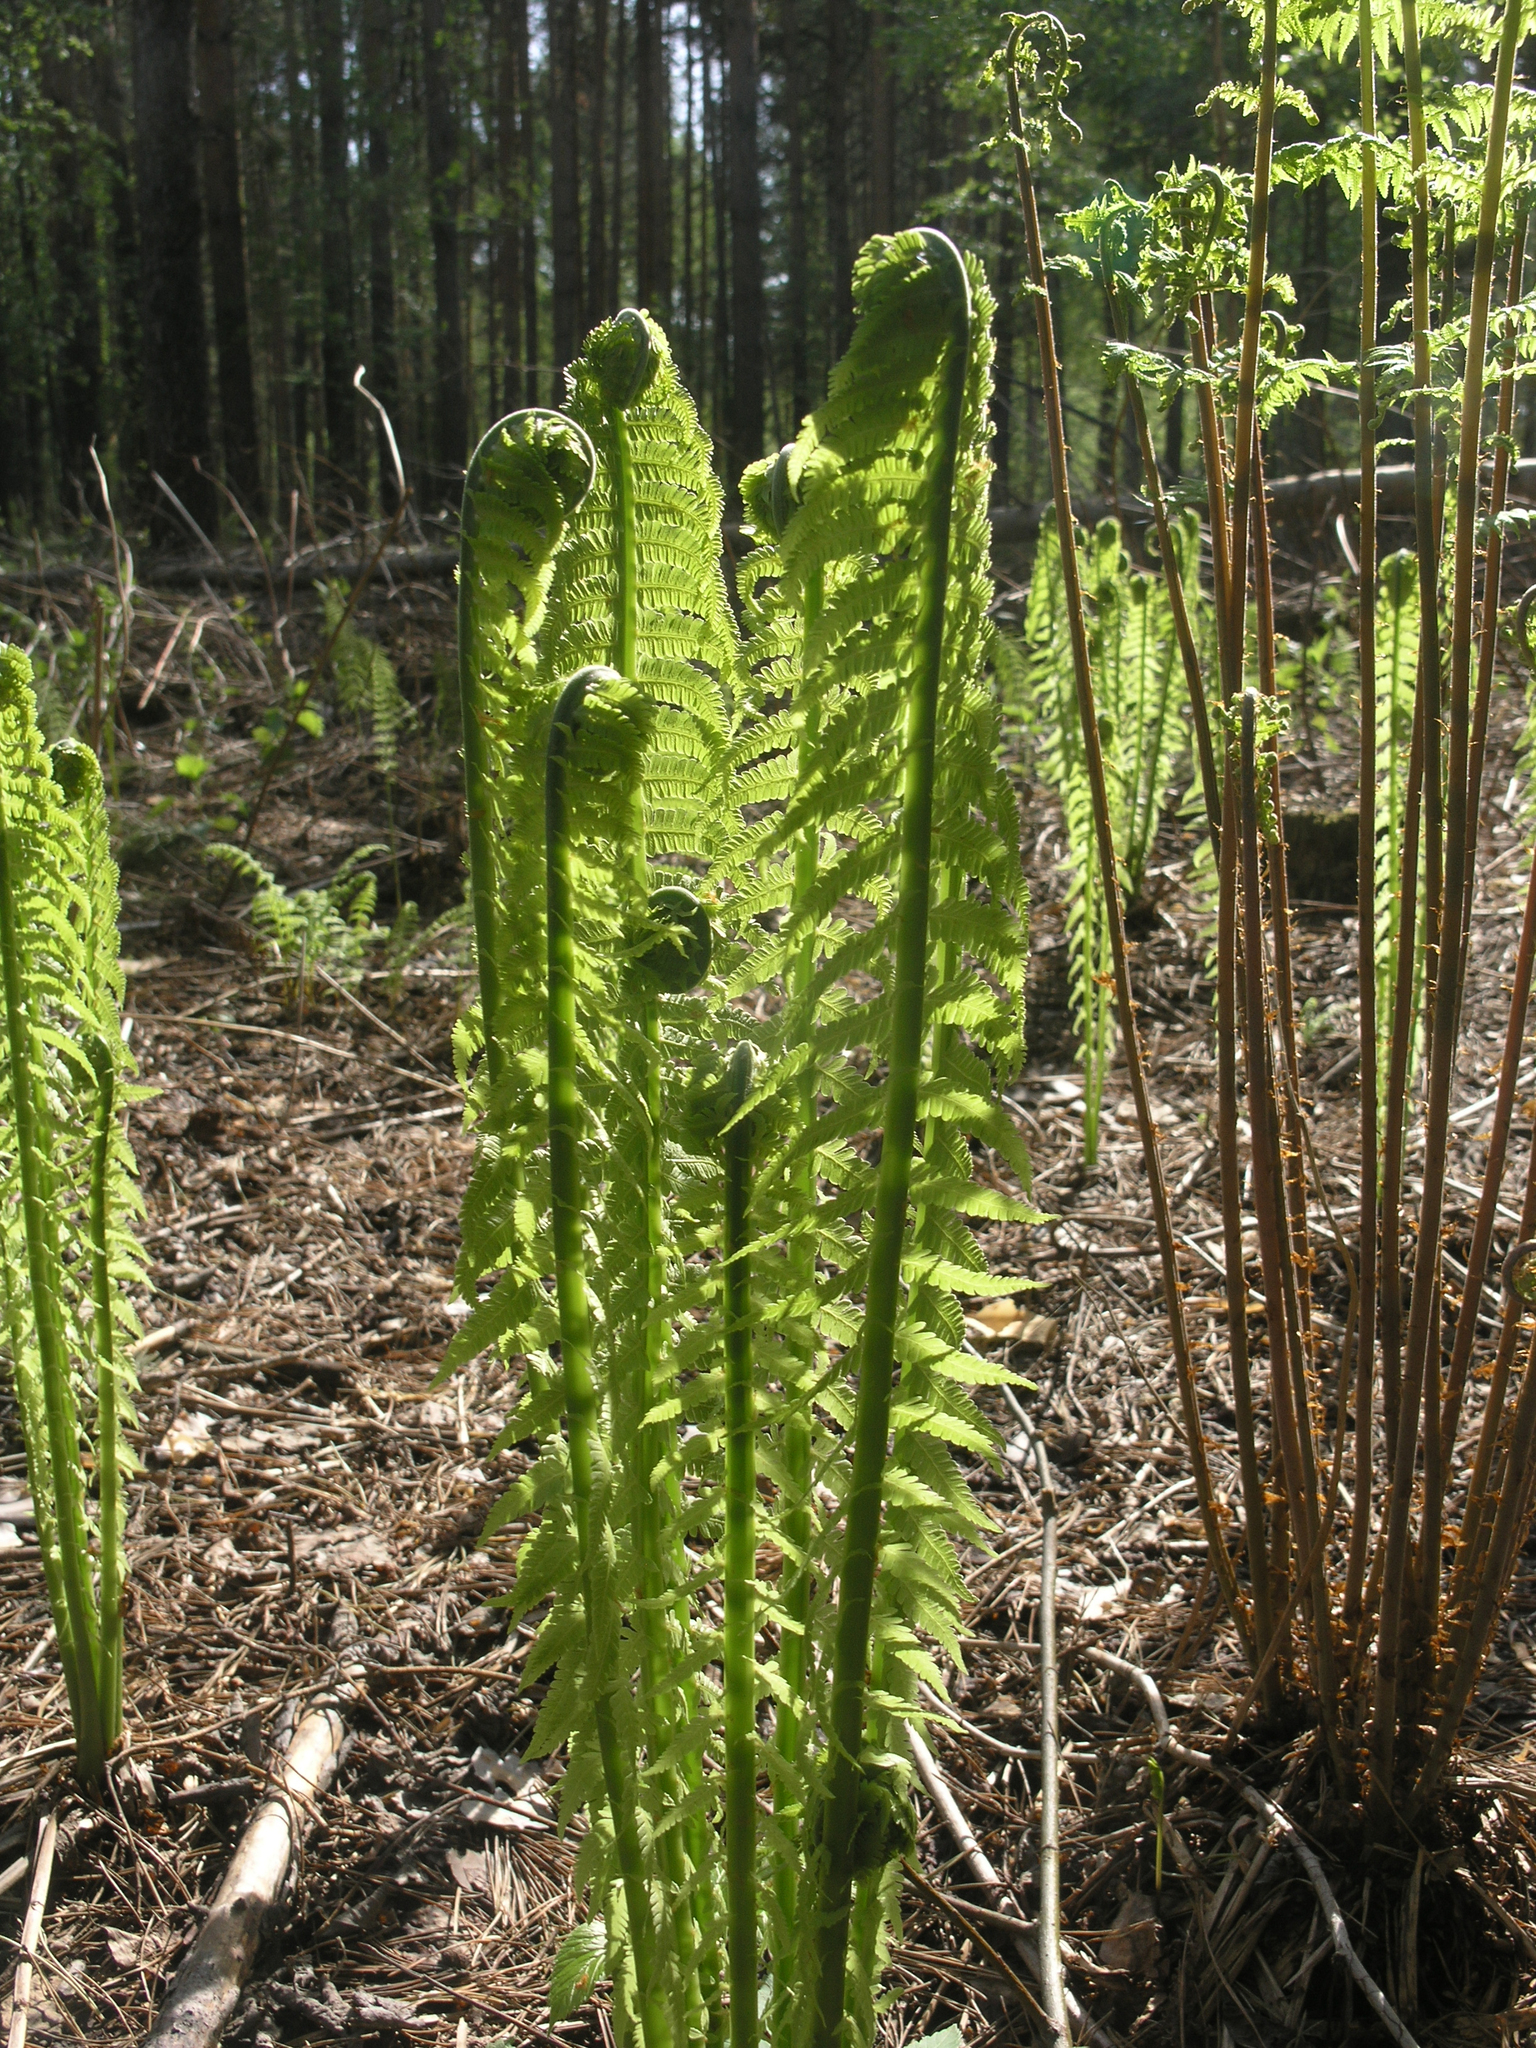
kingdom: Plantae
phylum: Tracheophyta
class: Polypodiopsida
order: Polypodiales
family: Athyriaceae
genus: Athyrium
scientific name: Athyrium filix-femina
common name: Lady fern
